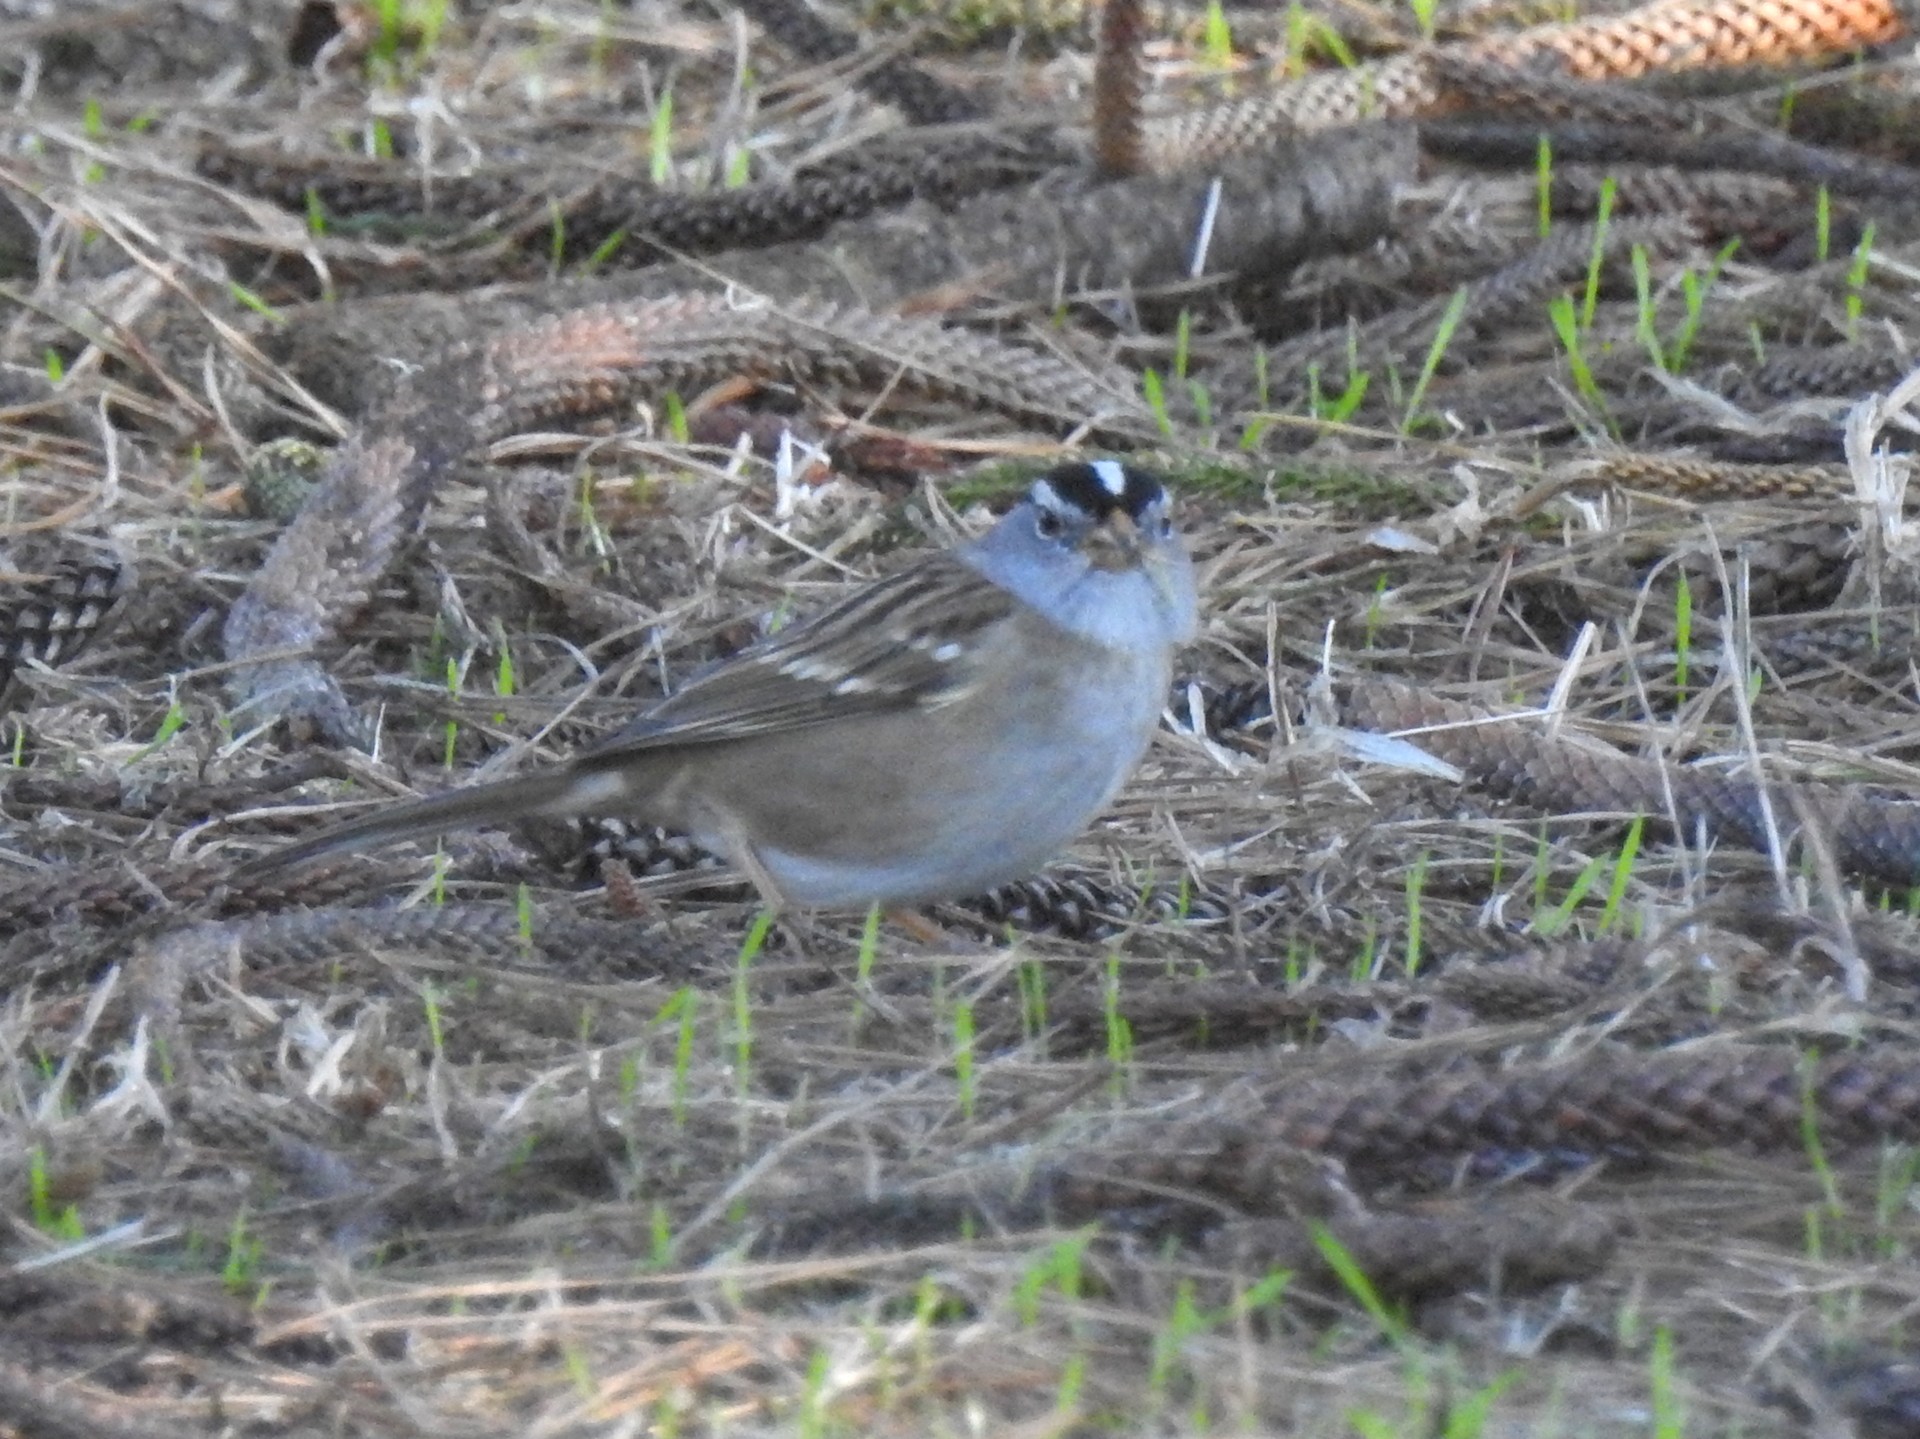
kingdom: Animalia
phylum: Chordata
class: Aves
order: Passeriformes
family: Passerellidae
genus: Zonotrichia
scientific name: Zonotrichia leucophrys
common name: White-crowned sparrow
